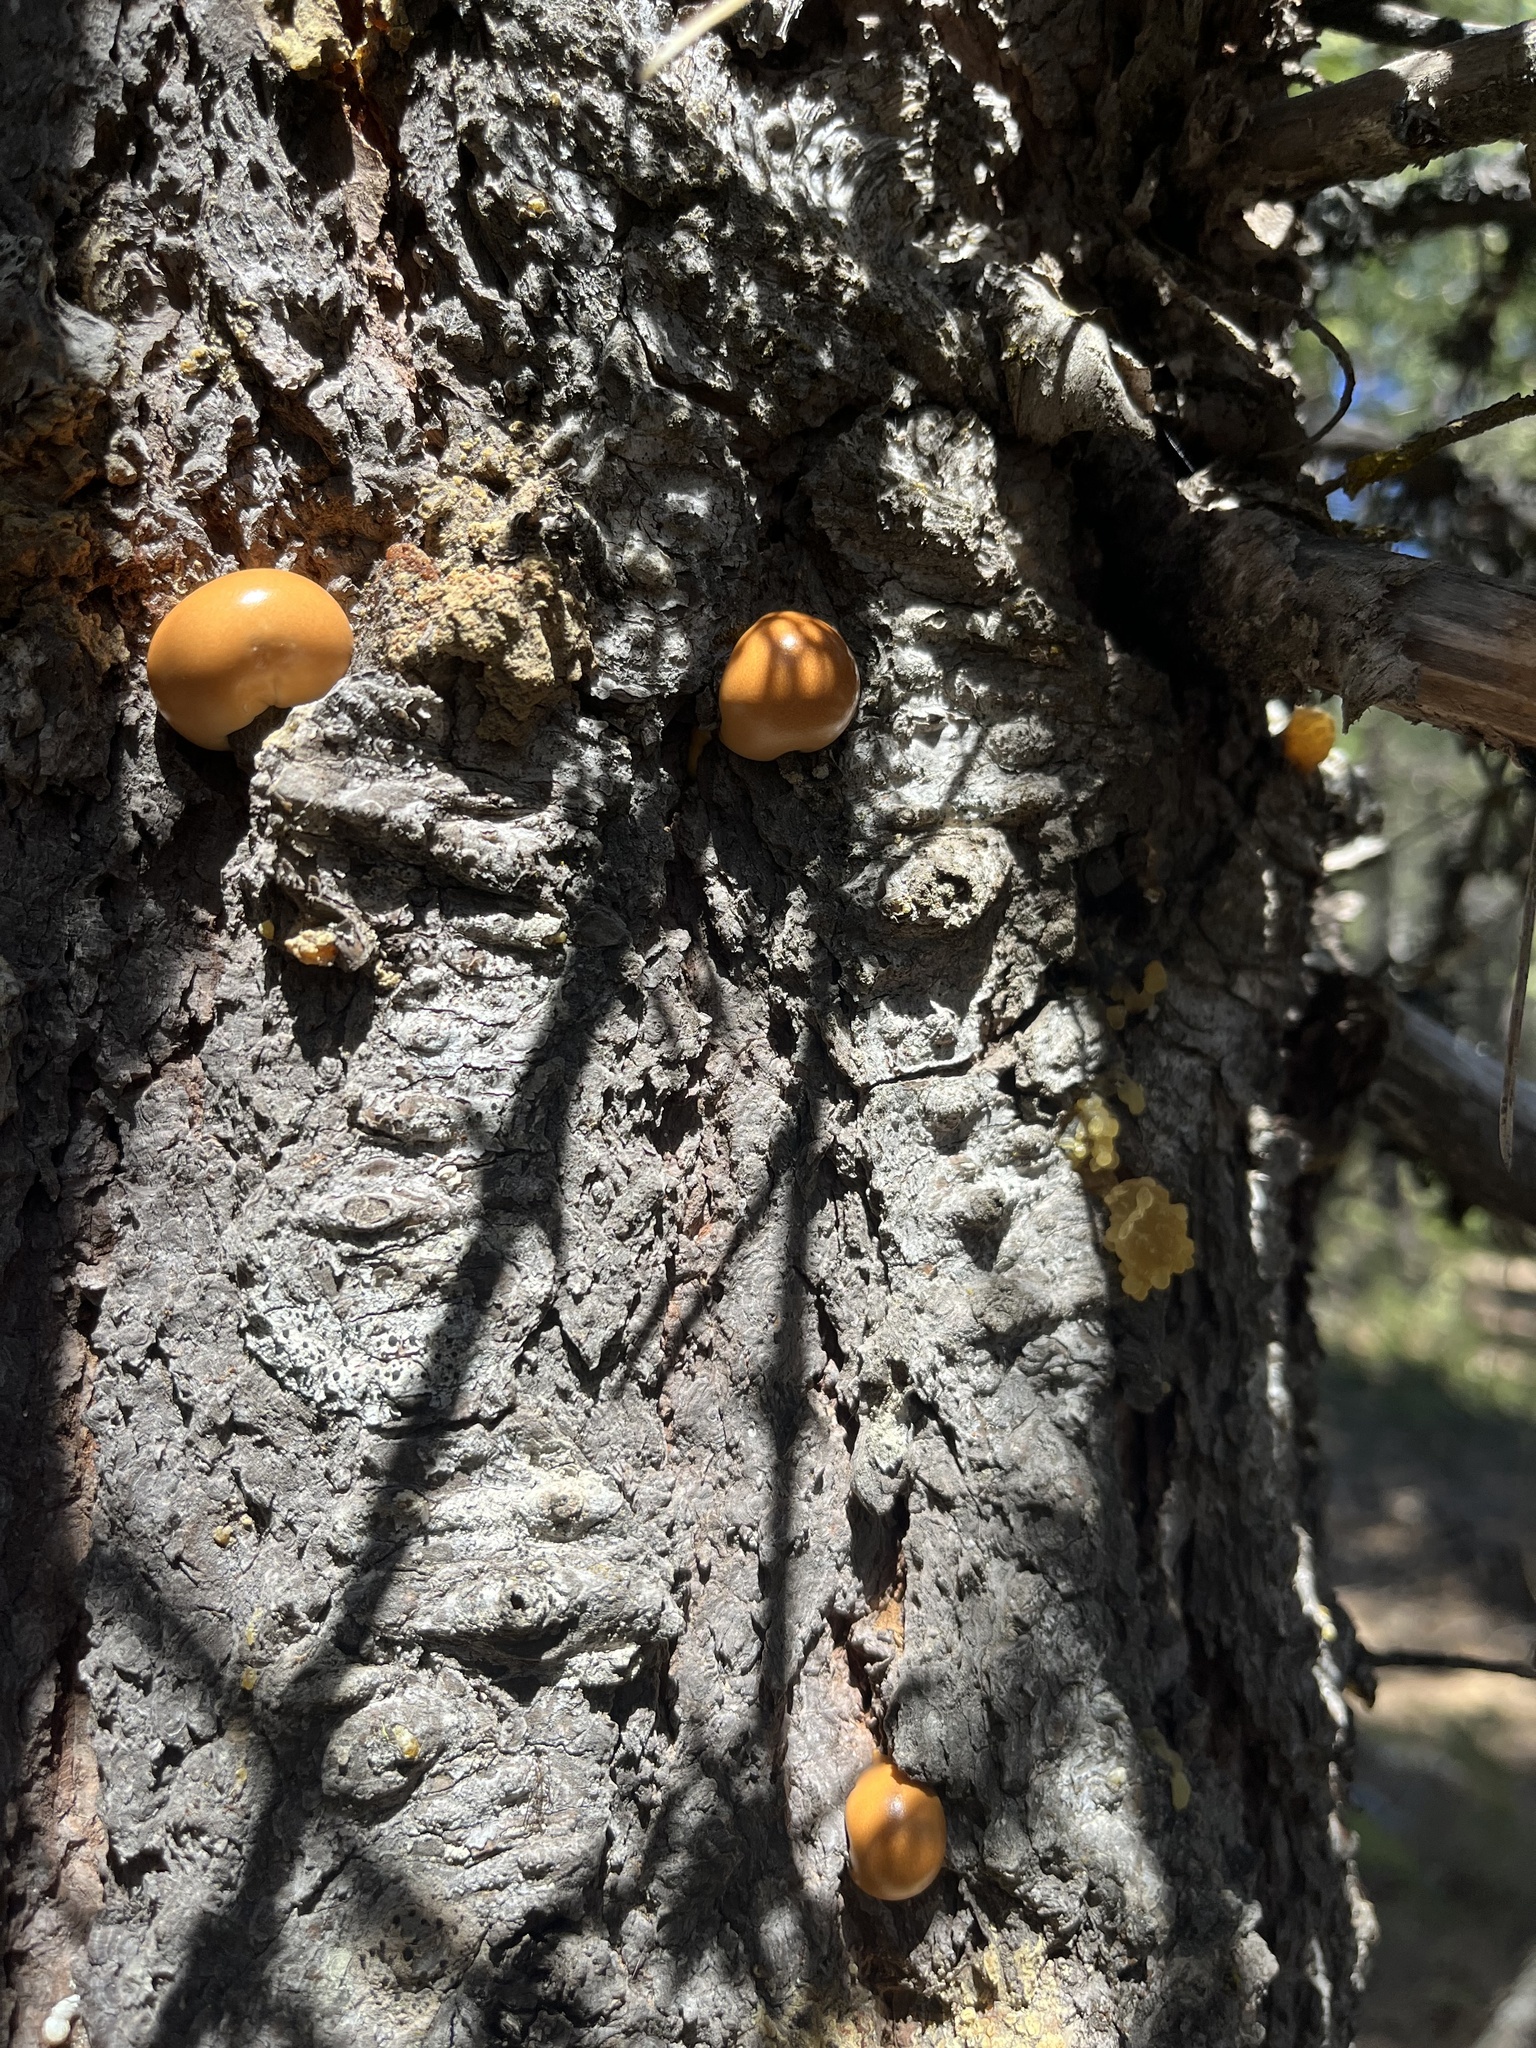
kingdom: Fungi
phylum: Basidiomycota
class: Agaricomycetes
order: Polyporales
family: Polyporaceae
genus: Cryptoporus
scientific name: Cryptoporus volvatus
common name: Veiled polypore
